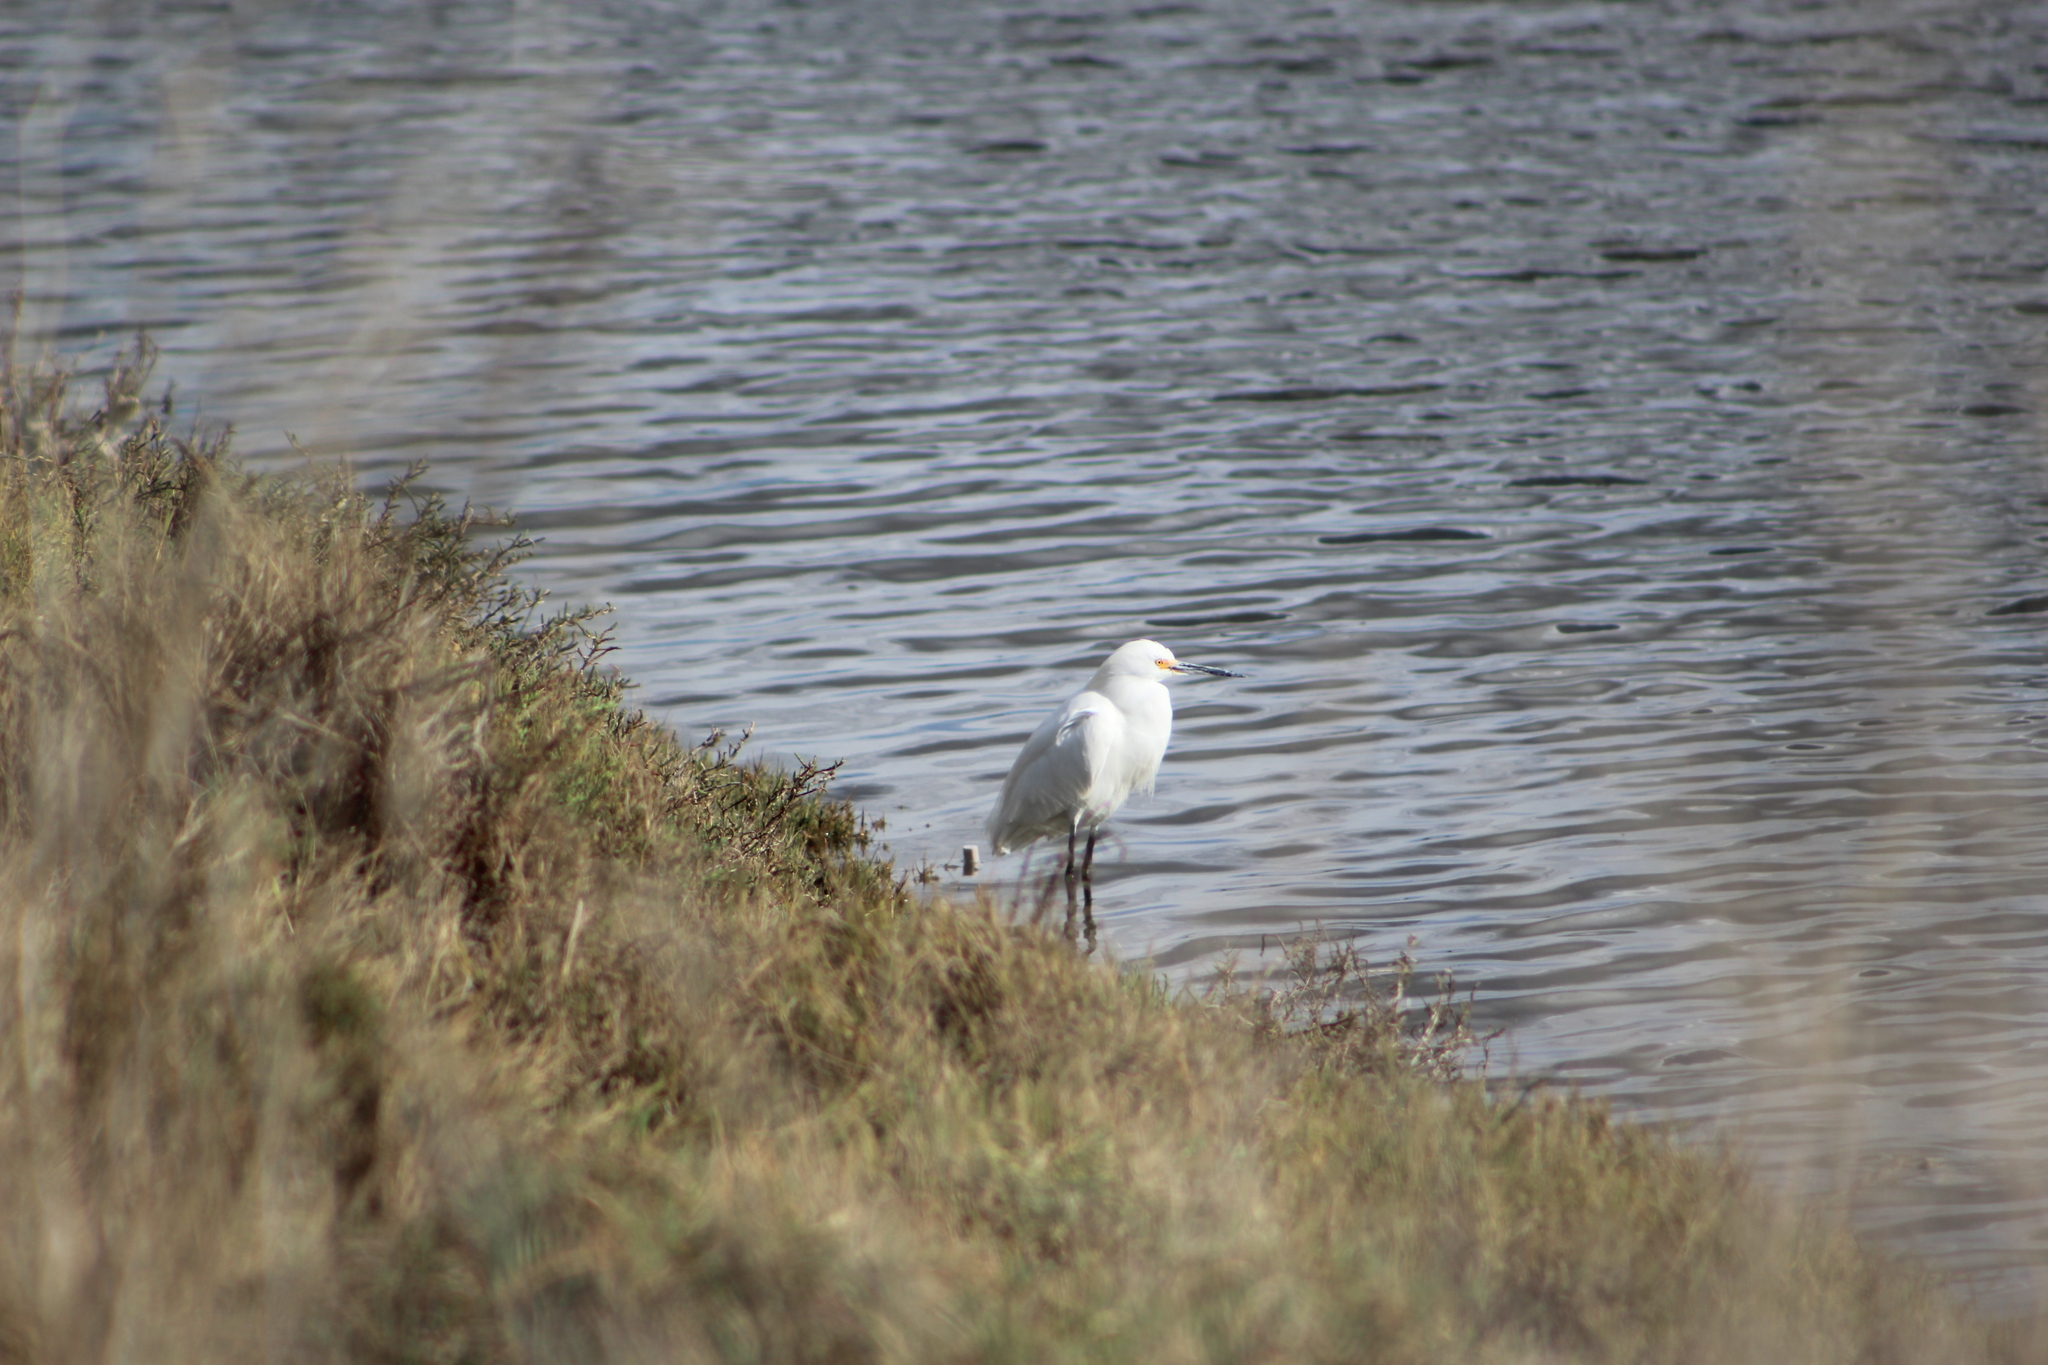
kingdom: Animalia
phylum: Chordata
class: Aves
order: Pelecaniformes
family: Ardeidae
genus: Egretta
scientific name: Egretta thula
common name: Snowy egret
